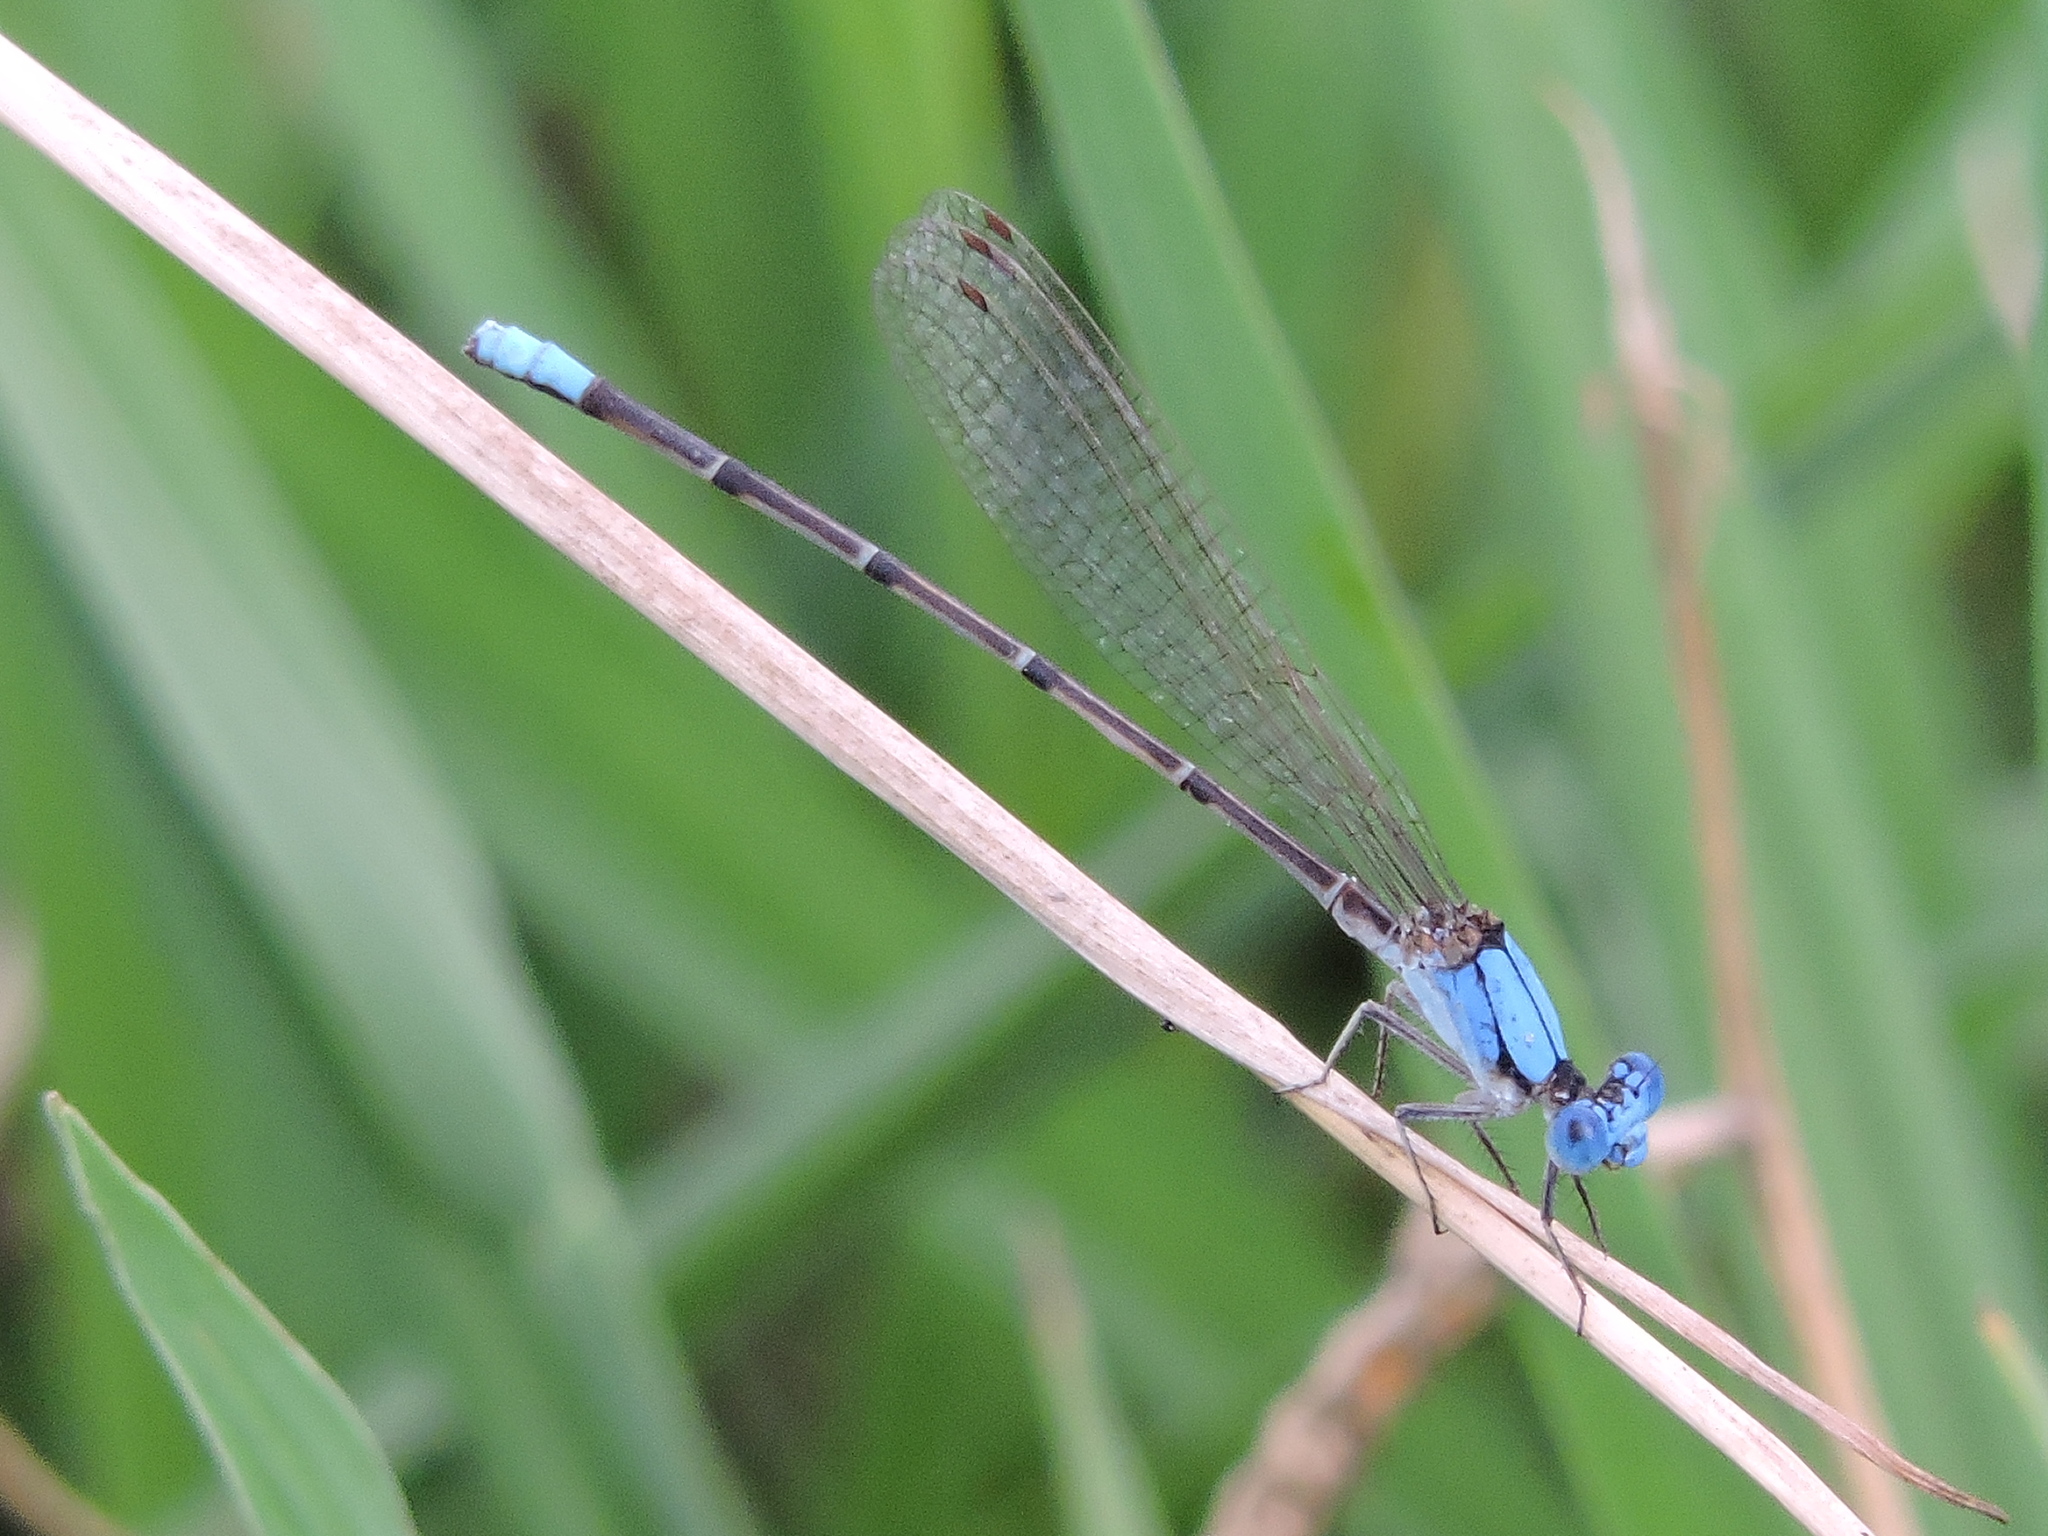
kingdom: Animalia
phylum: Arthropoda
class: Insecta
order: Odonata
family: Coenagrionidae
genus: Argia
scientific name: Argia apicalis
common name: Blue-fronted dancer
